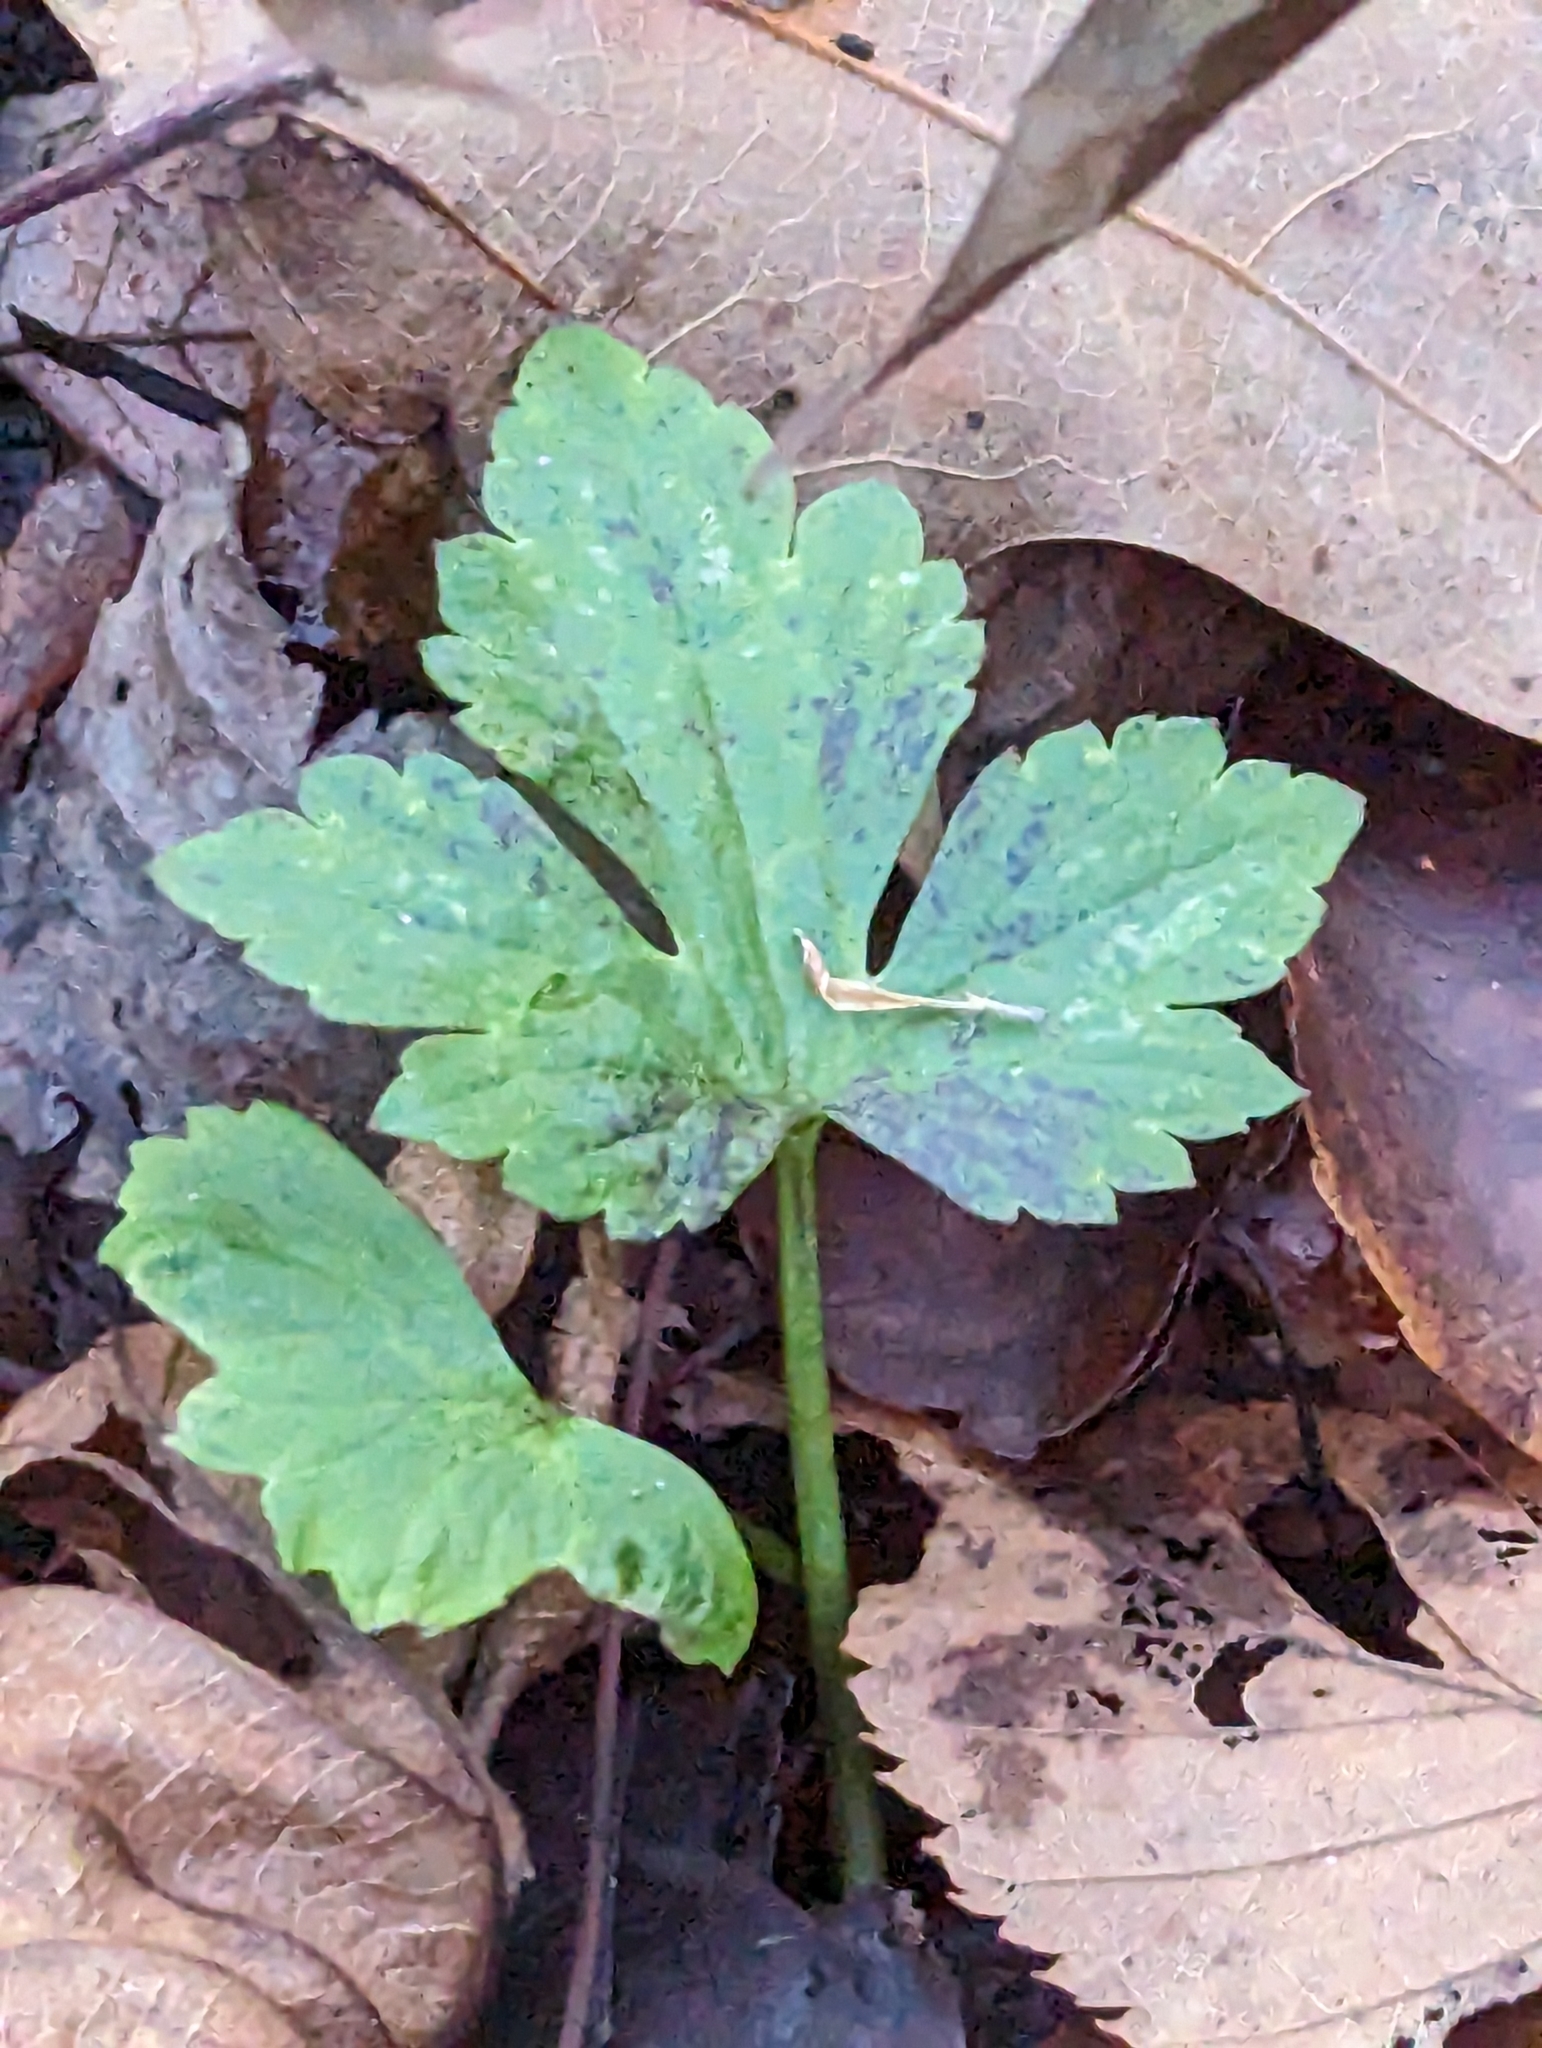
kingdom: Plantae
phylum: Tracheophyta
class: Magnoliopsida
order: Ranunculales
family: Ranunculaceae
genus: Ranunculus
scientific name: Ranunculus recurvatus
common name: Blisterwort
